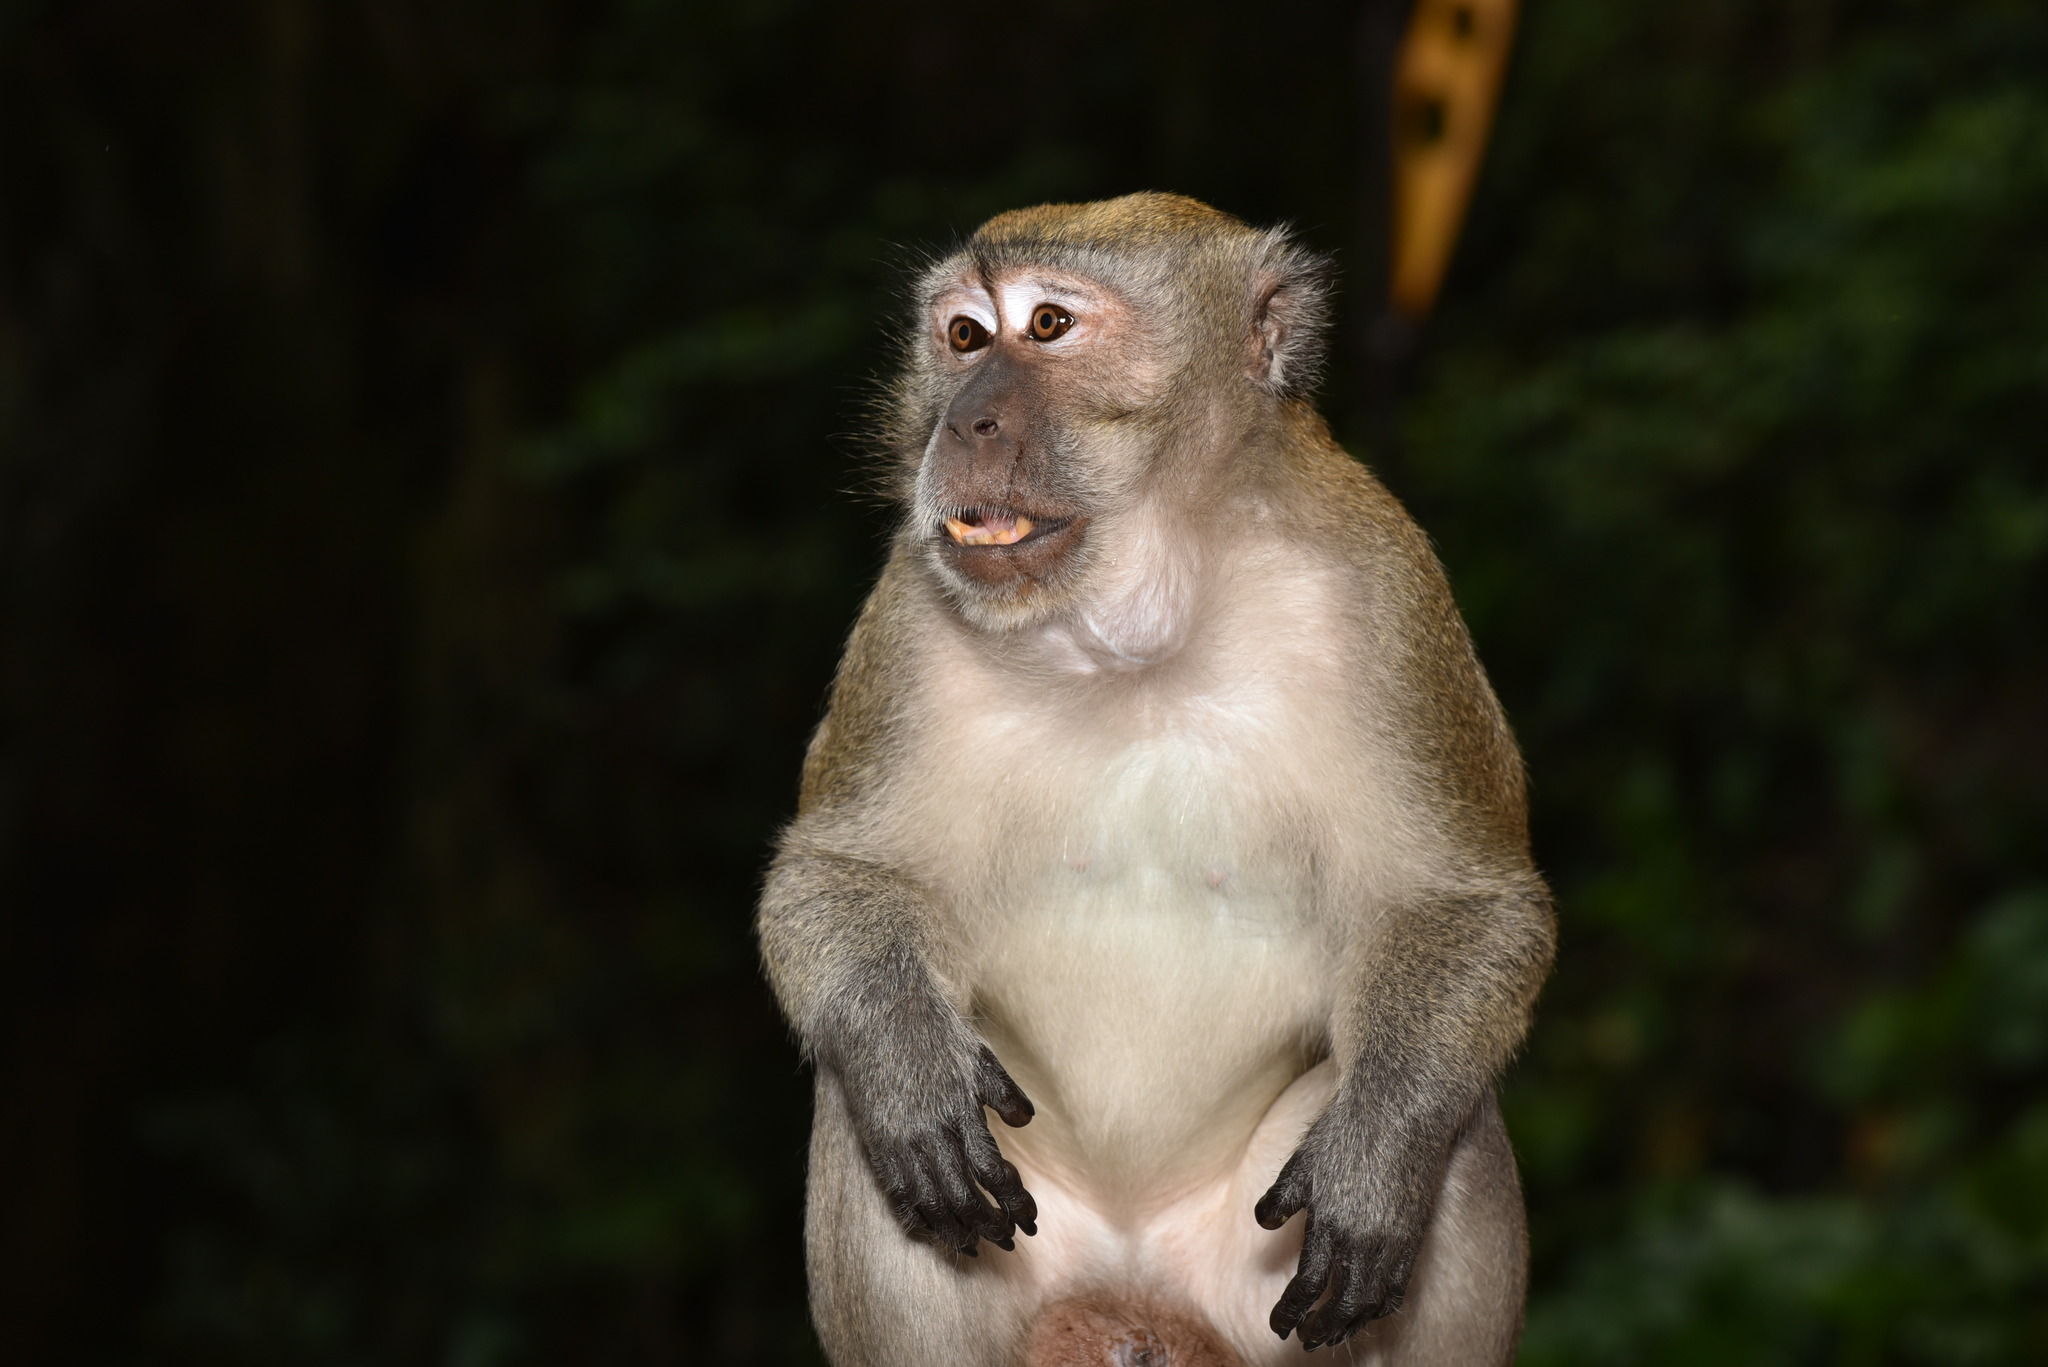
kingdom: Animalia
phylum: Chordata
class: Mammalia
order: Primates
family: Cercopithecidae
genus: Macaca
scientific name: Macaca fascicularis
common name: Crab-eating macaque
